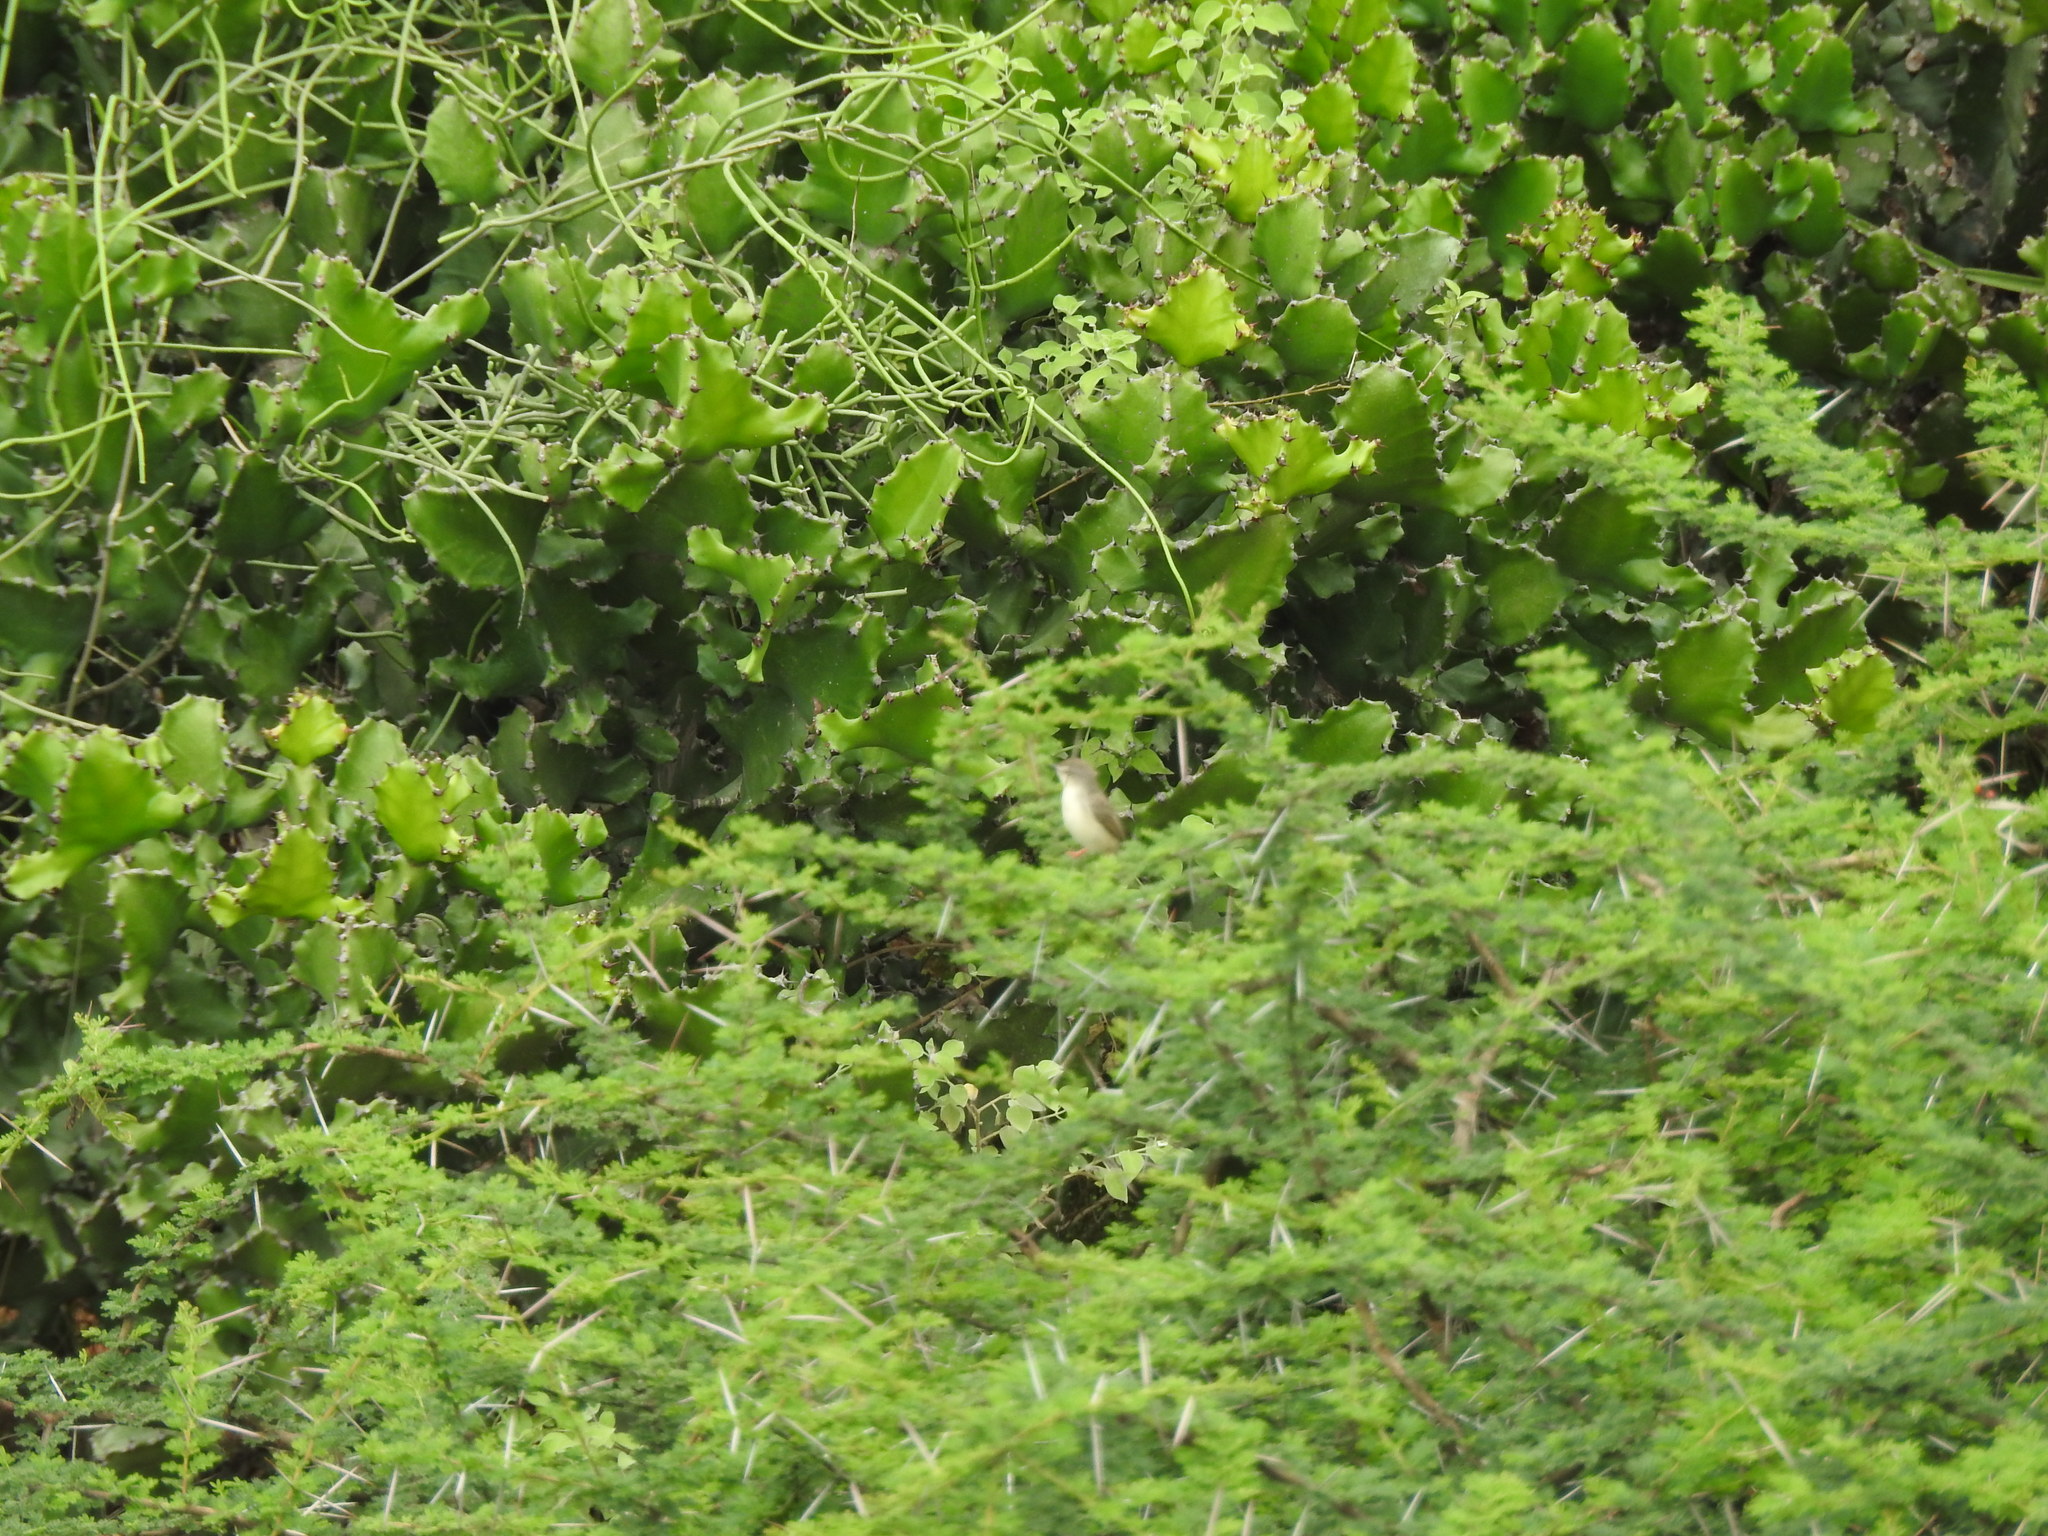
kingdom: Animalia
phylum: Chordata
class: Aves
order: Passeriformes
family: Cisticolidae
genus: Prinia
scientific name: Prinia inornata
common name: Plain prinia
